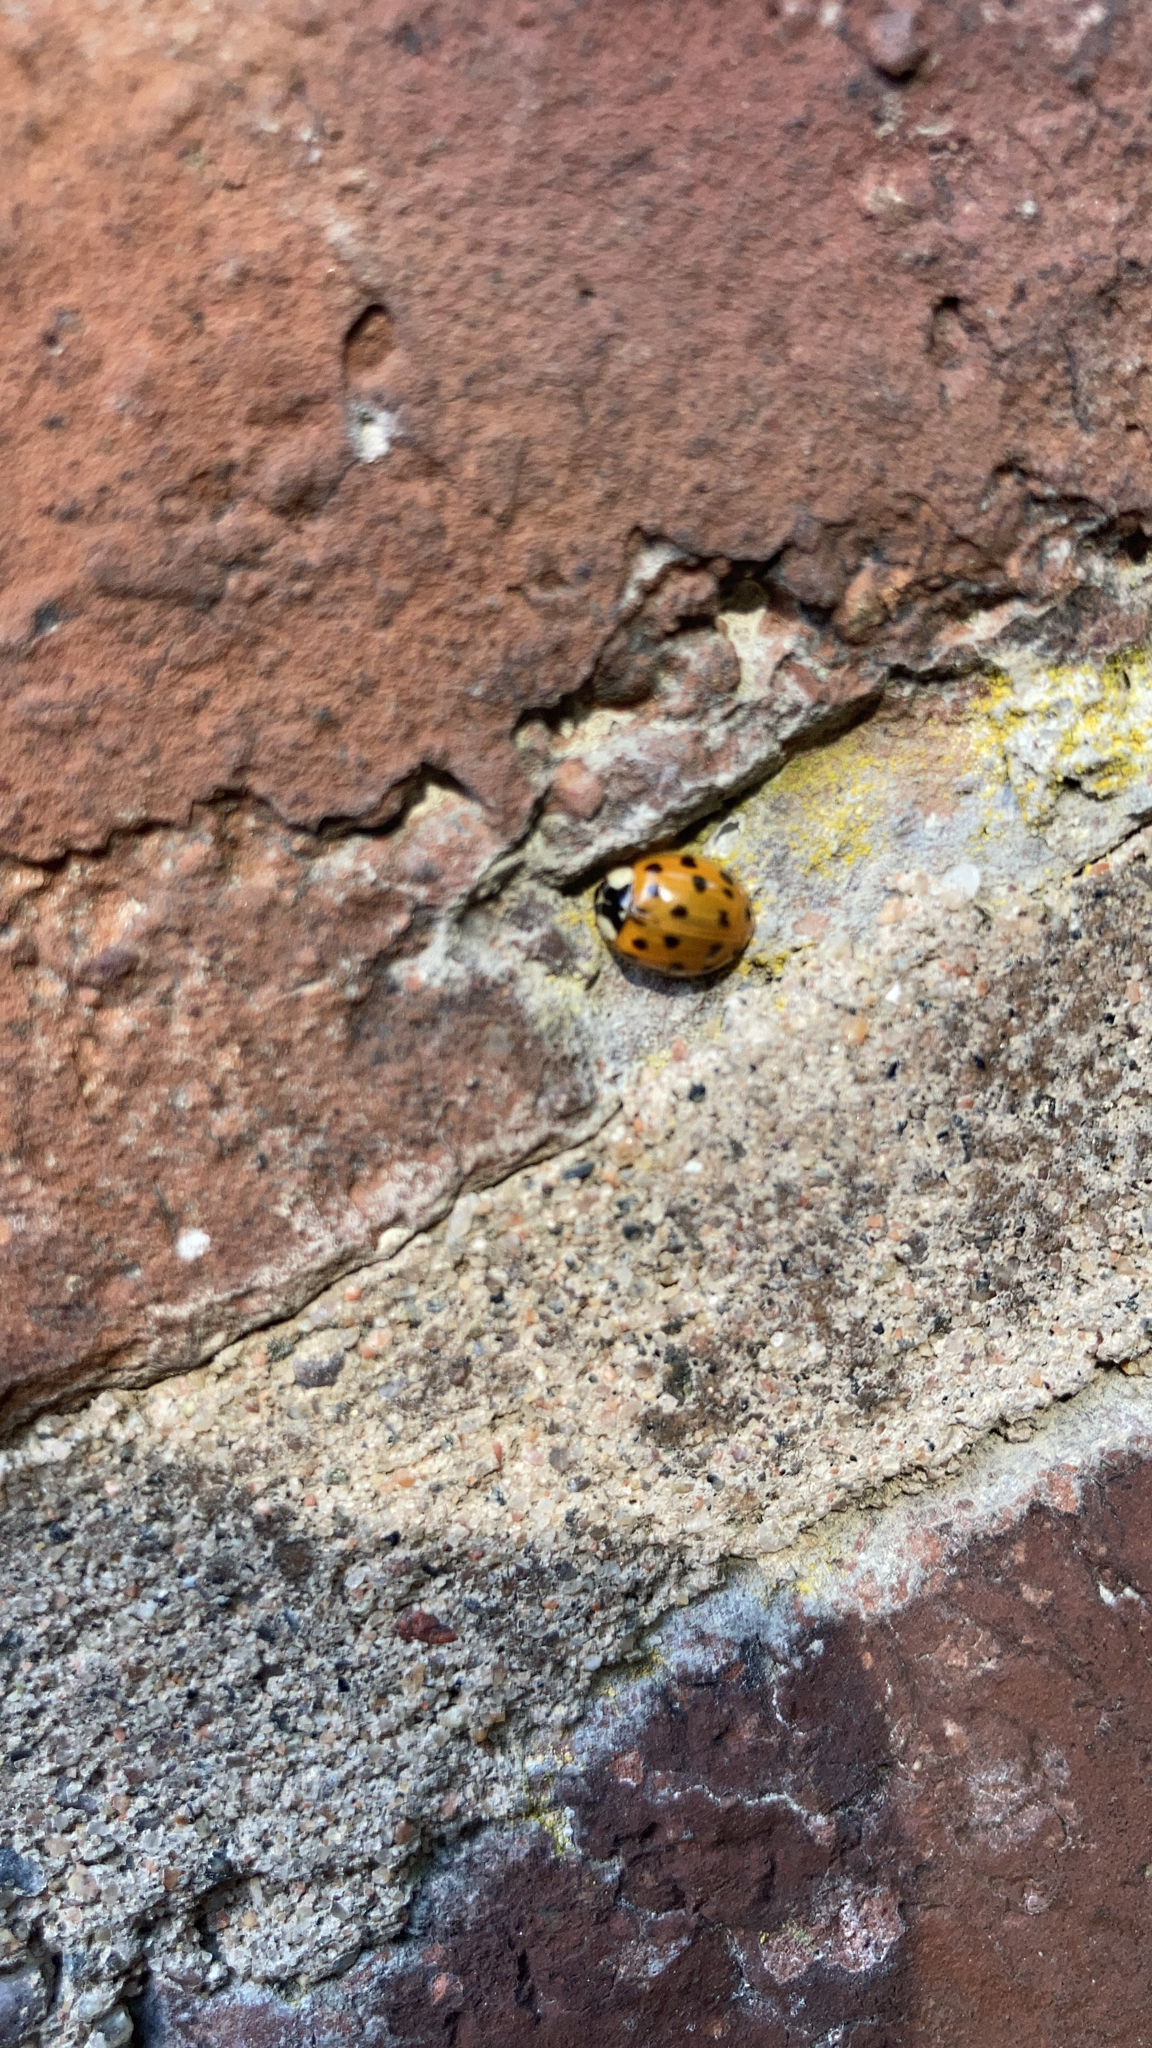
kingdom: Animalia
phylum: Arthropoda
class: Insecta
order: Coleoptera
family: Coccinellidae
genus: Harmonia
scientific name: Harmonia axyridis
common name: Harlequin ladybird
